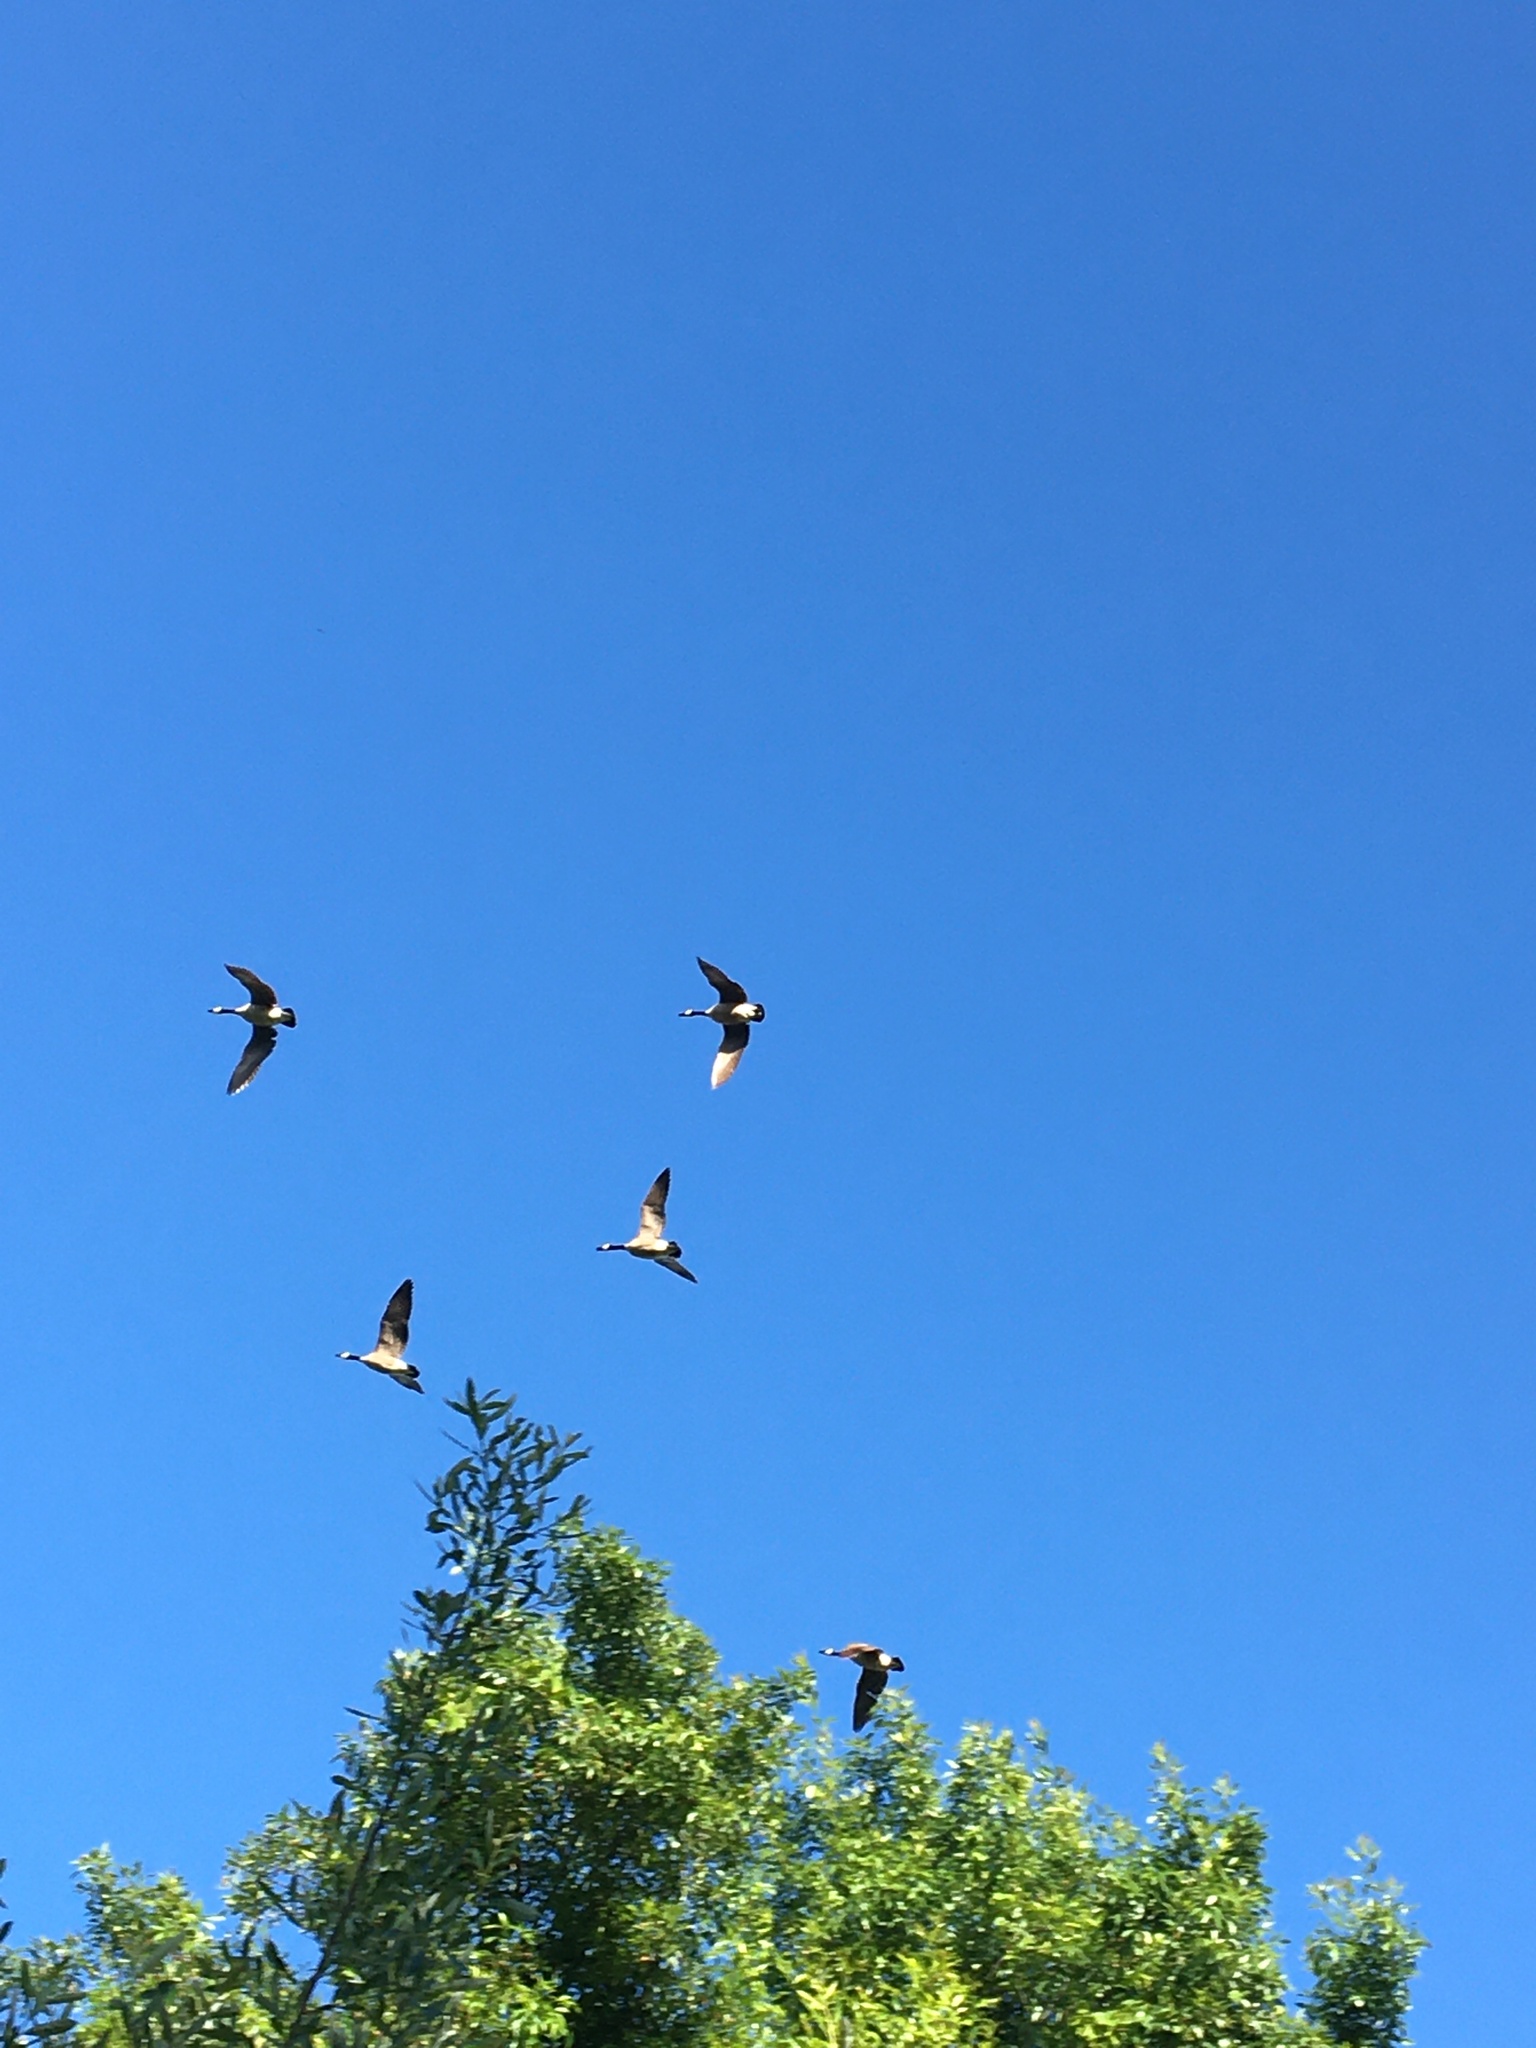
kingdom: Animalia
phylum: Chordata
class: Aves
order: Anseriformes
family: Anatidae
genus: Branta
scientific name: Branta canadensis
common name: Canada goose
